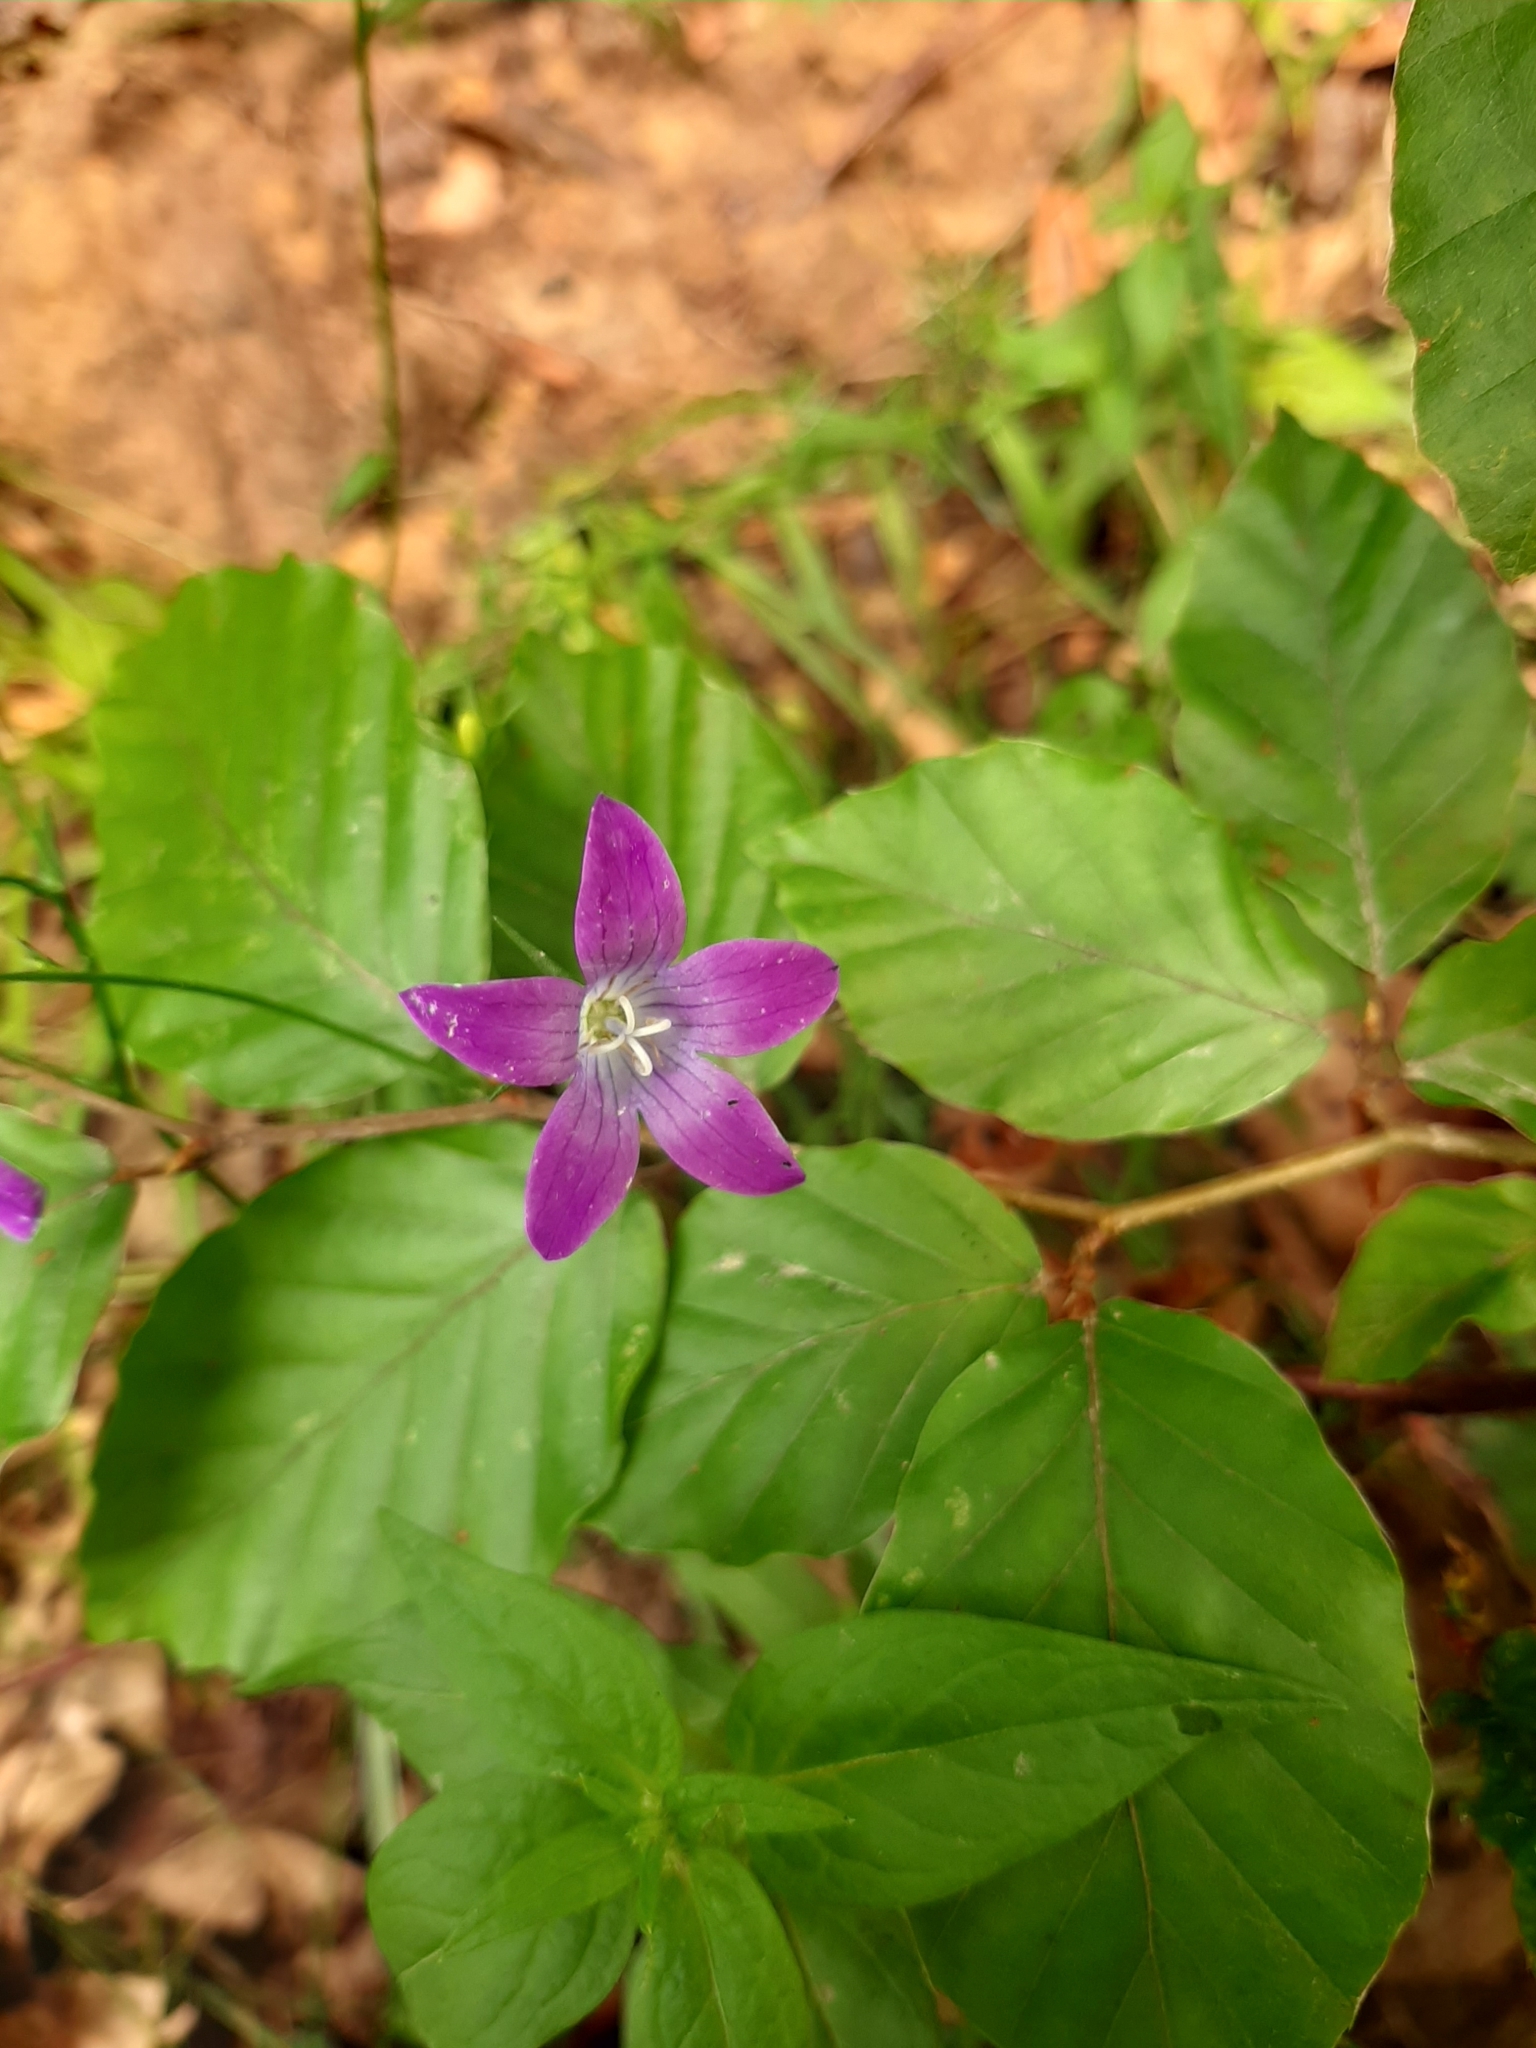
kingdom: Plantae
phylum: Tracheophyta
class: Magnoliopsida
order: Asterales
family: Campanulaceae
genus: Campanula
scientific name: Campanula patula
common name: Spreading bellflower
